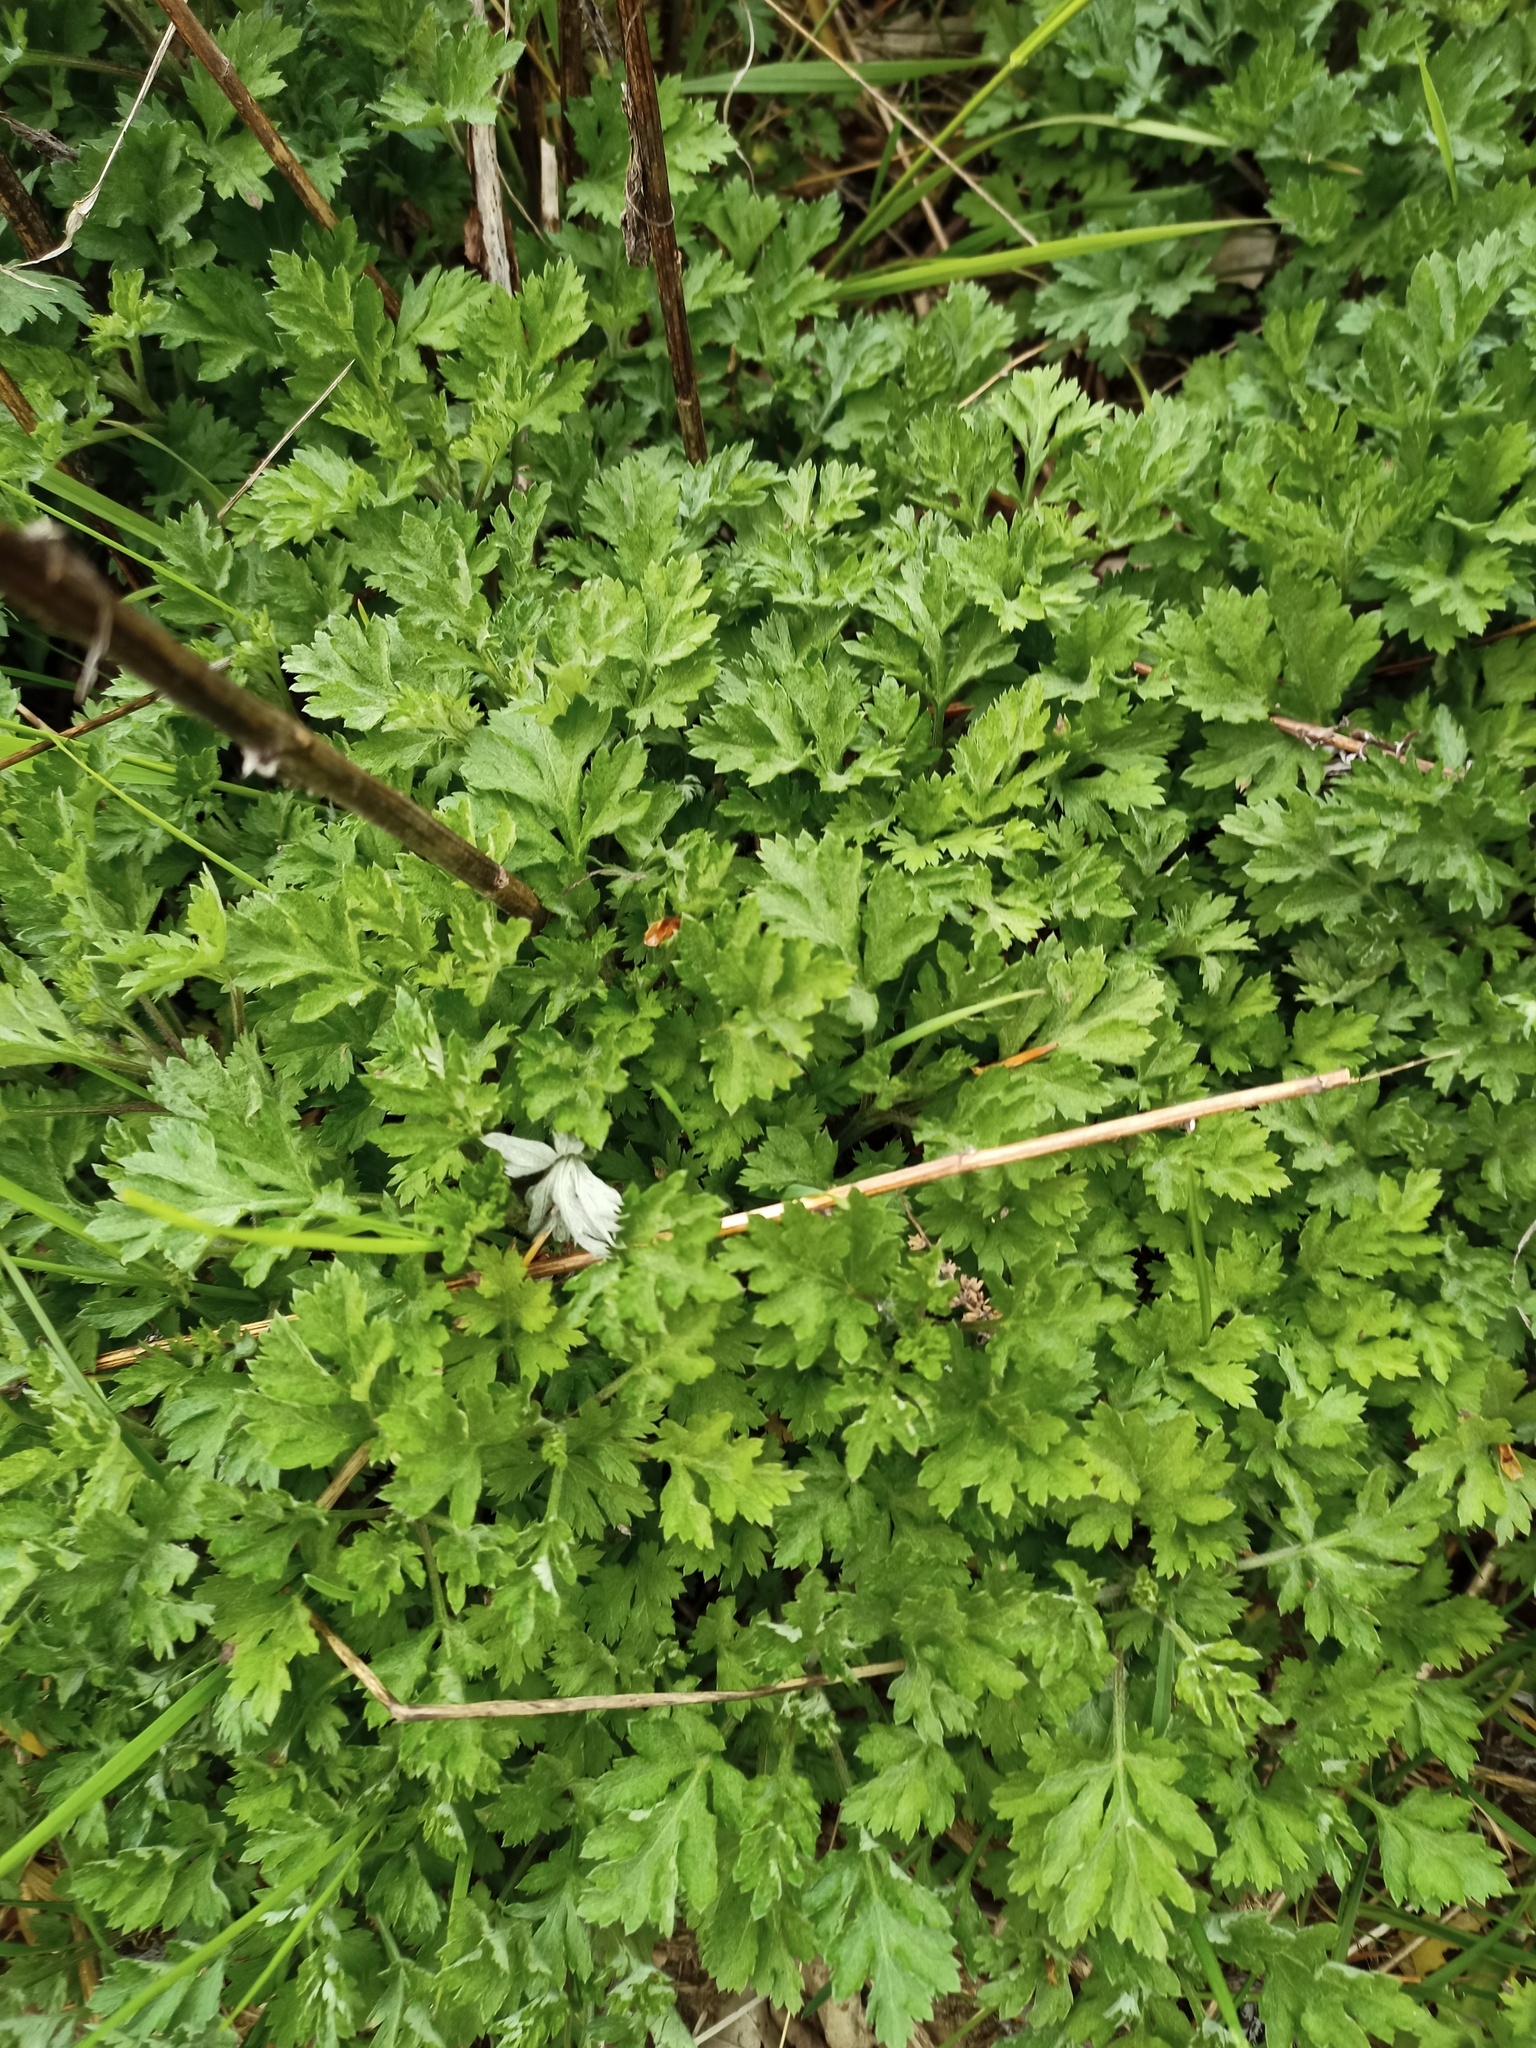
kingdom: Plantae
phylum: Tracheophyta
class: Magnoliopsida
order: Asterales
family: Asteraceae
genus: Artemisia
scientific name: Artemisia vulgaris
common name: Mugwort
